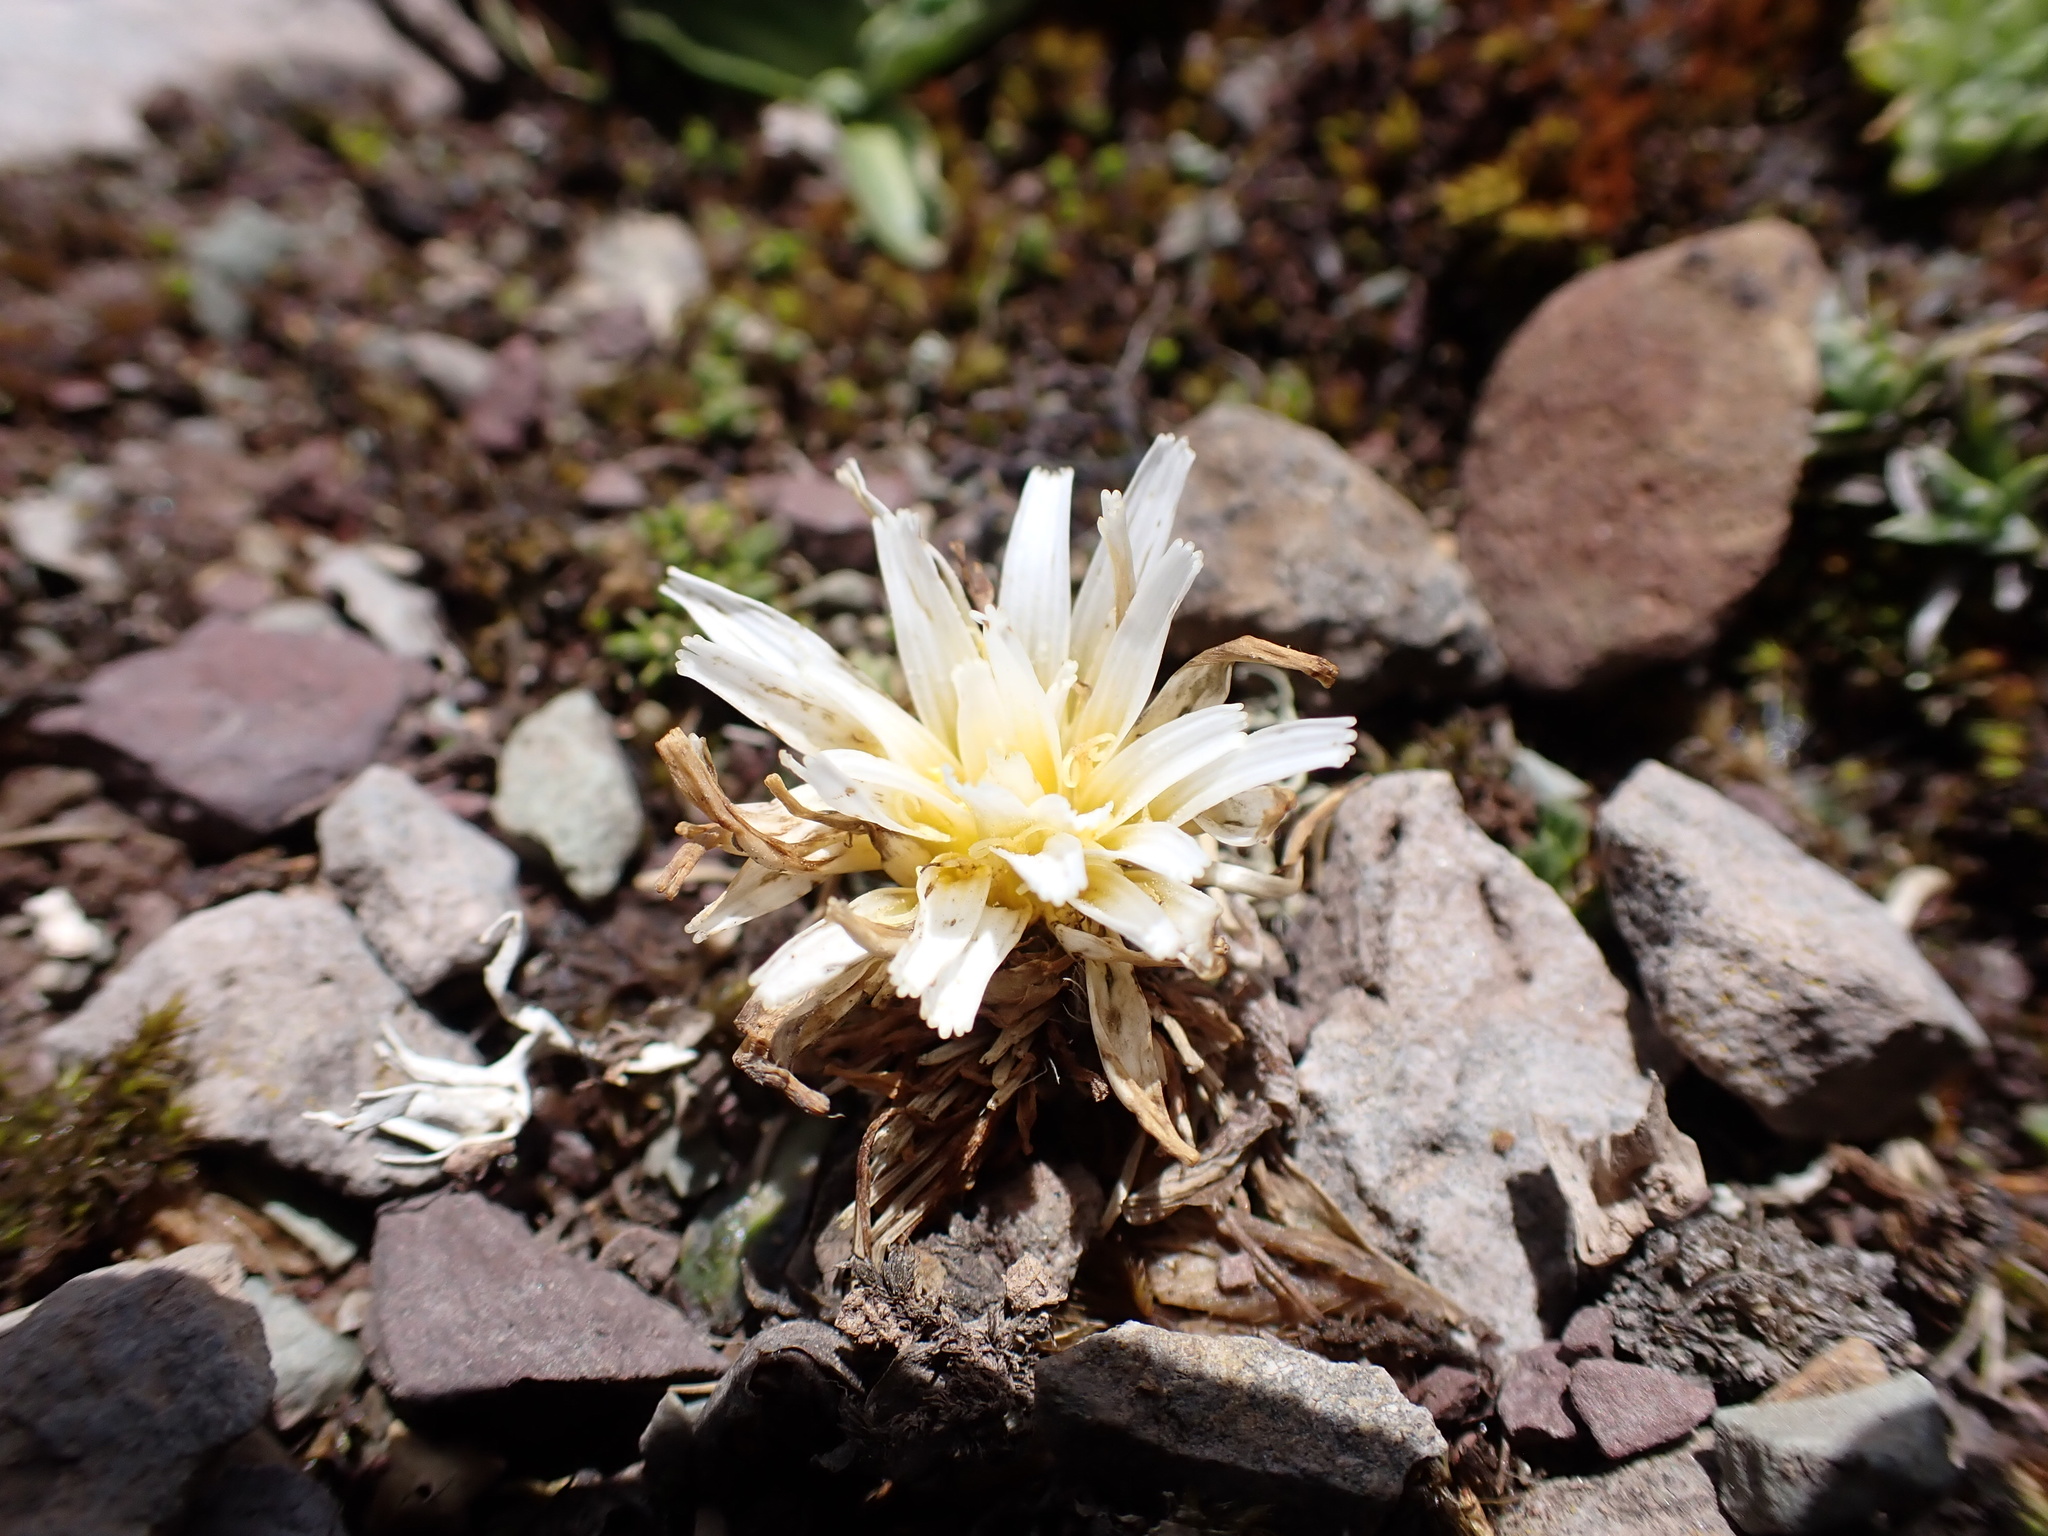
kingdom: Plantae
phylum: Tracheophyta
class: Magnoliopsida
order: Asterales
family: Asteraceae
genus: Hypochaeris
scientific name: Hypochaeris taraxacoides
